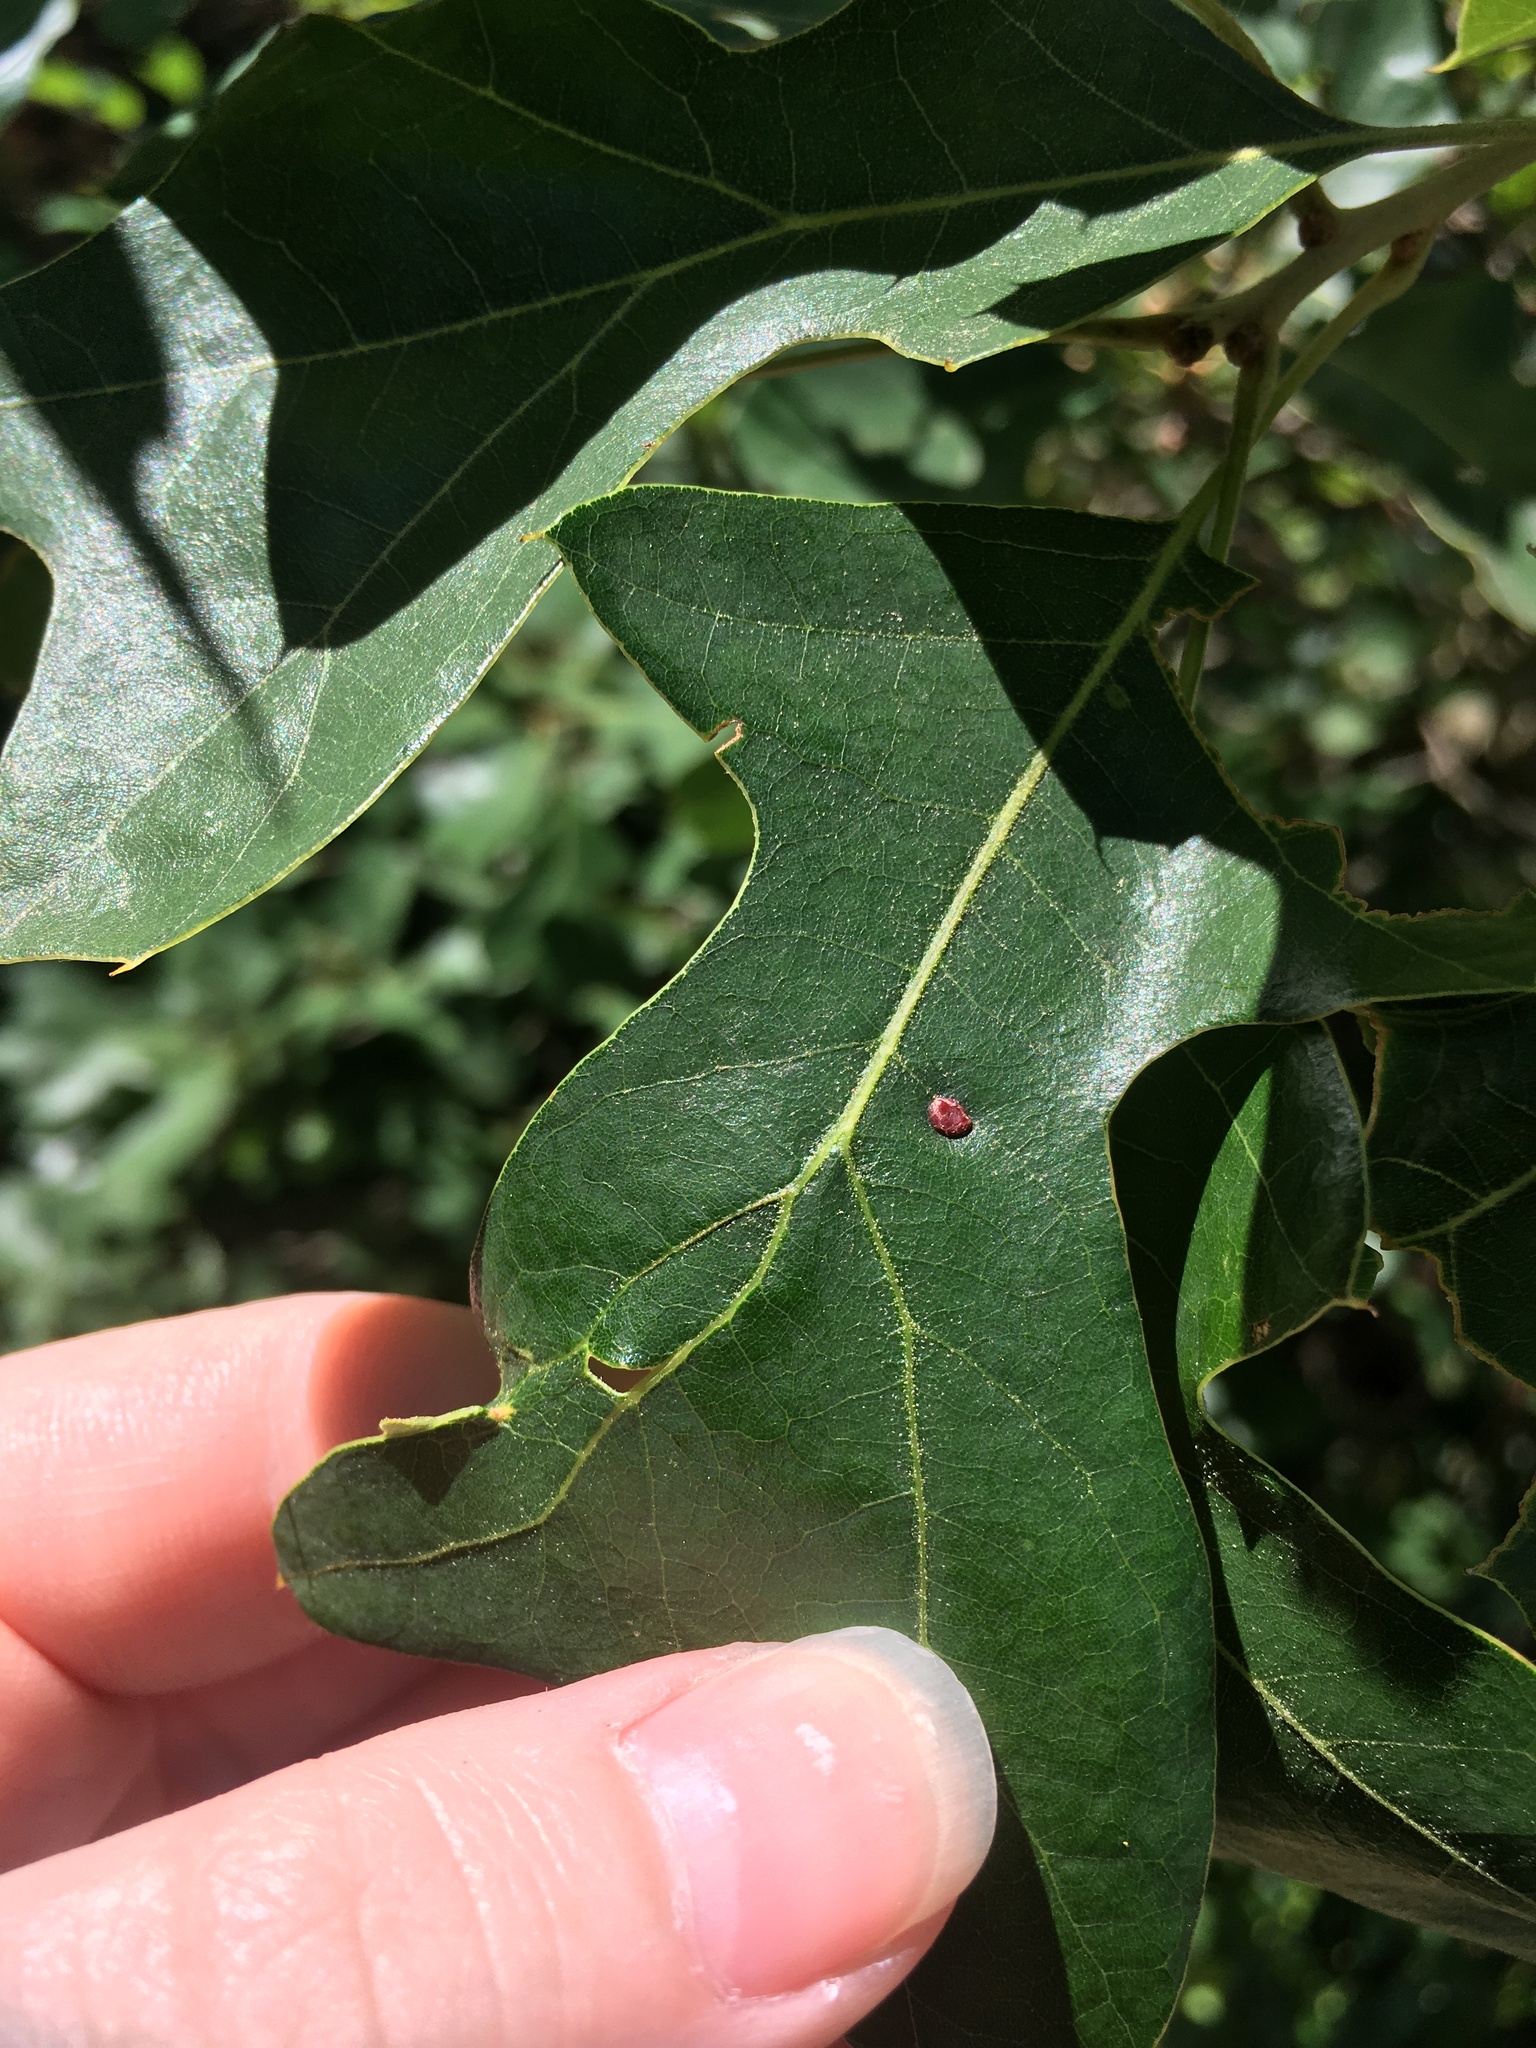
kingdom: Animalia
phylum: Arthropoda
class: Insecta
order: Diptera
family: Cecidomyiidae
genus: Polystepha
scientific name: Polystepha pilulae
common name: Oak leaf gall midge
